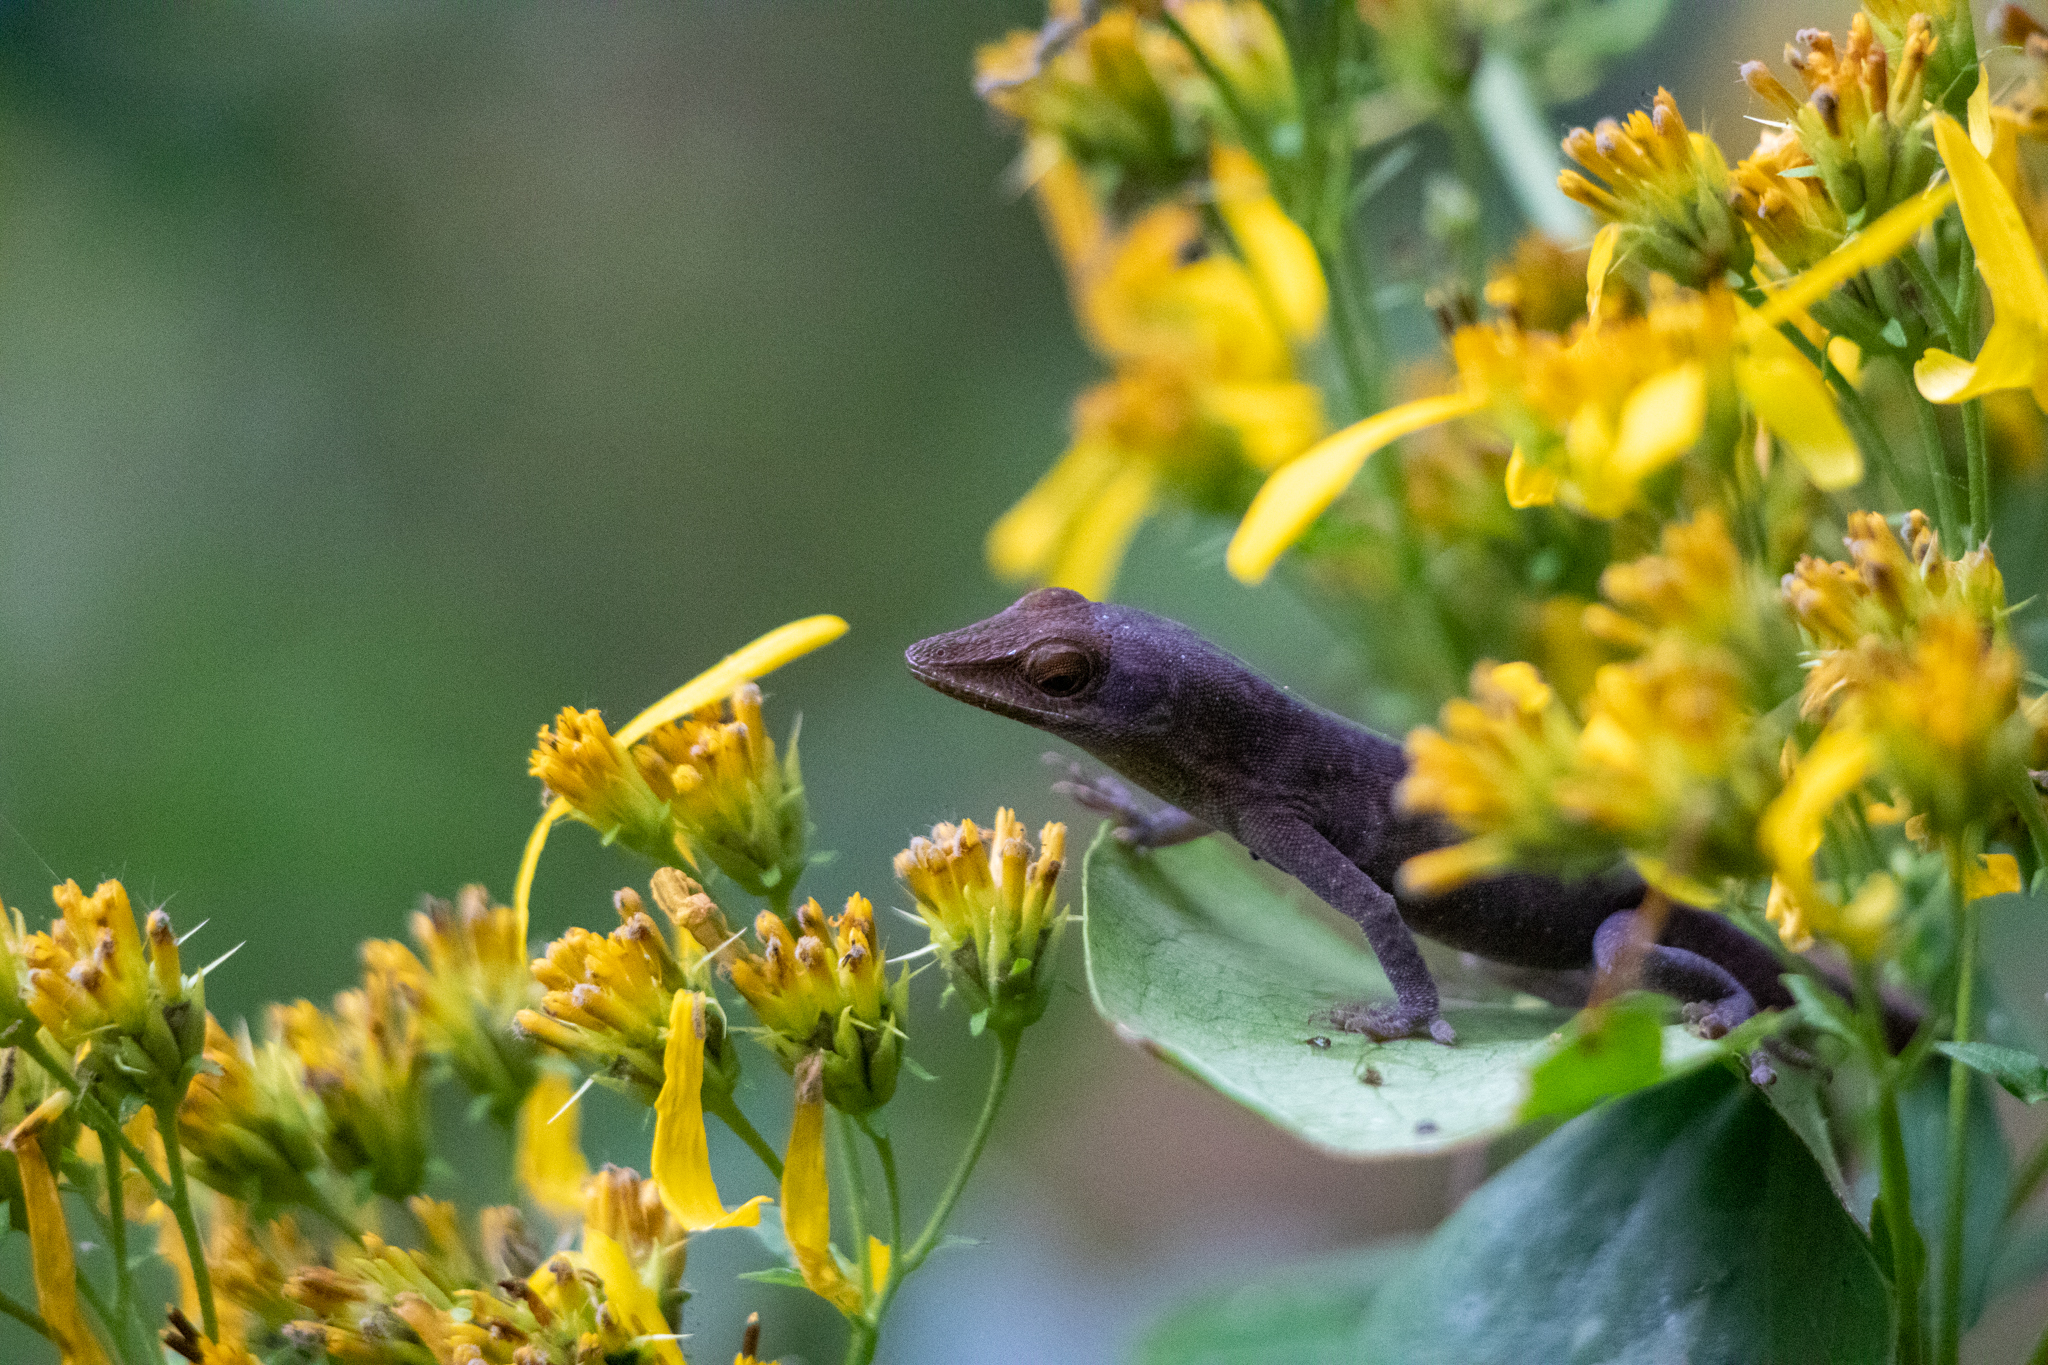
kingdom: Animalia
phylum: Chordata
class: Squamata
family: Dactyloidae
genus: Anolis
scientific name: Anolis carolinensis
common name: Green anole
